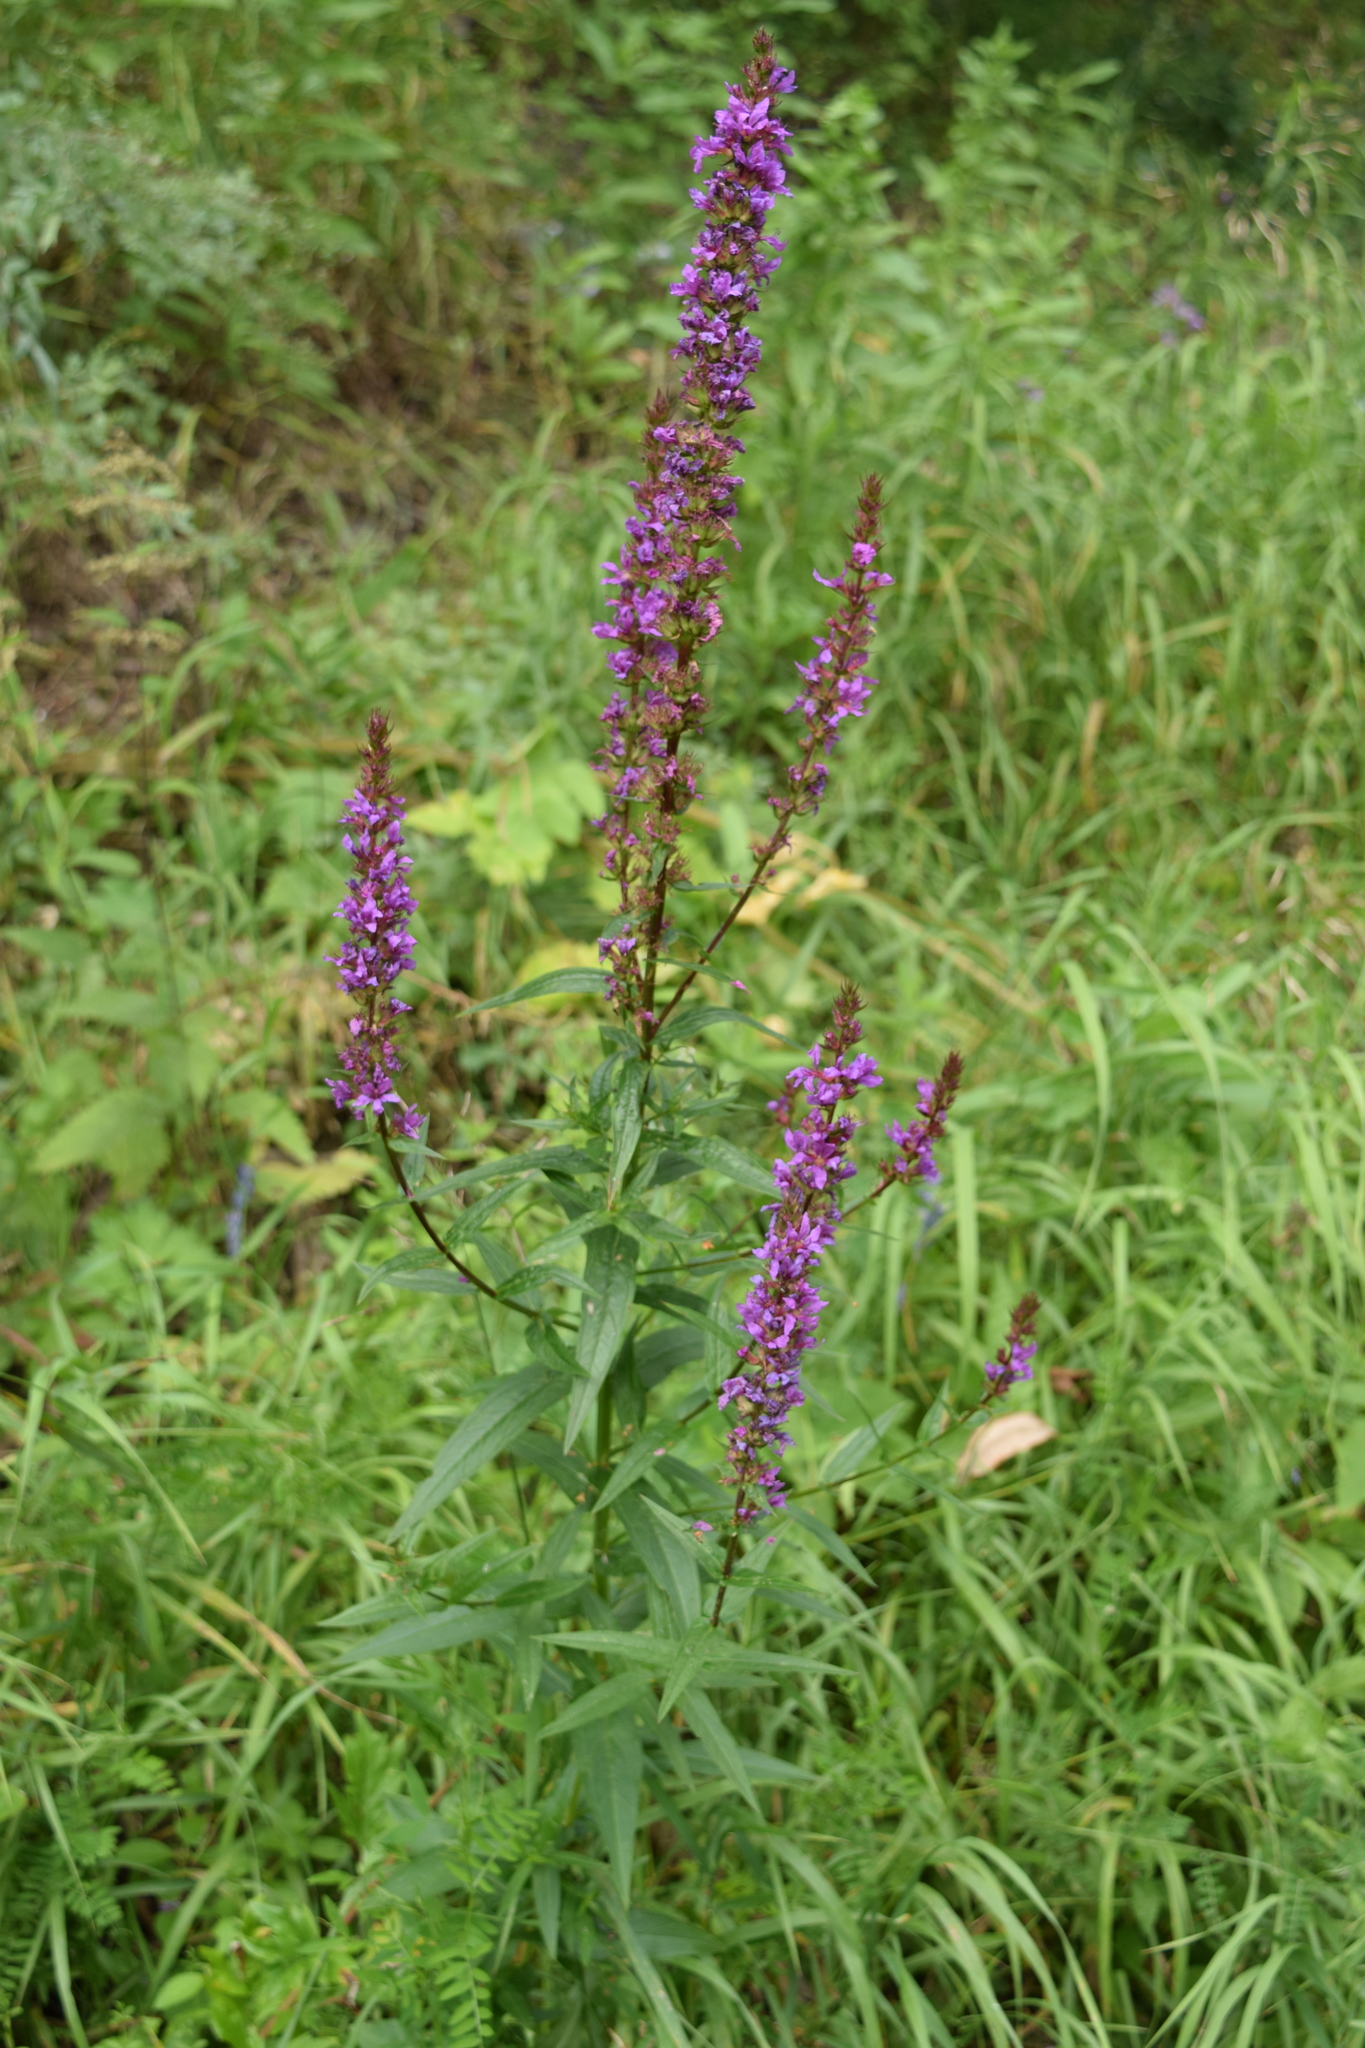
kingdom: Plantae
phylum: Tracheophyta
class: Magnoliopsida
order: Myrtales
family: Lythraceae
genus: Lythrum
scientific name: Lythrum salicaria
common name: Purple loosestrife
